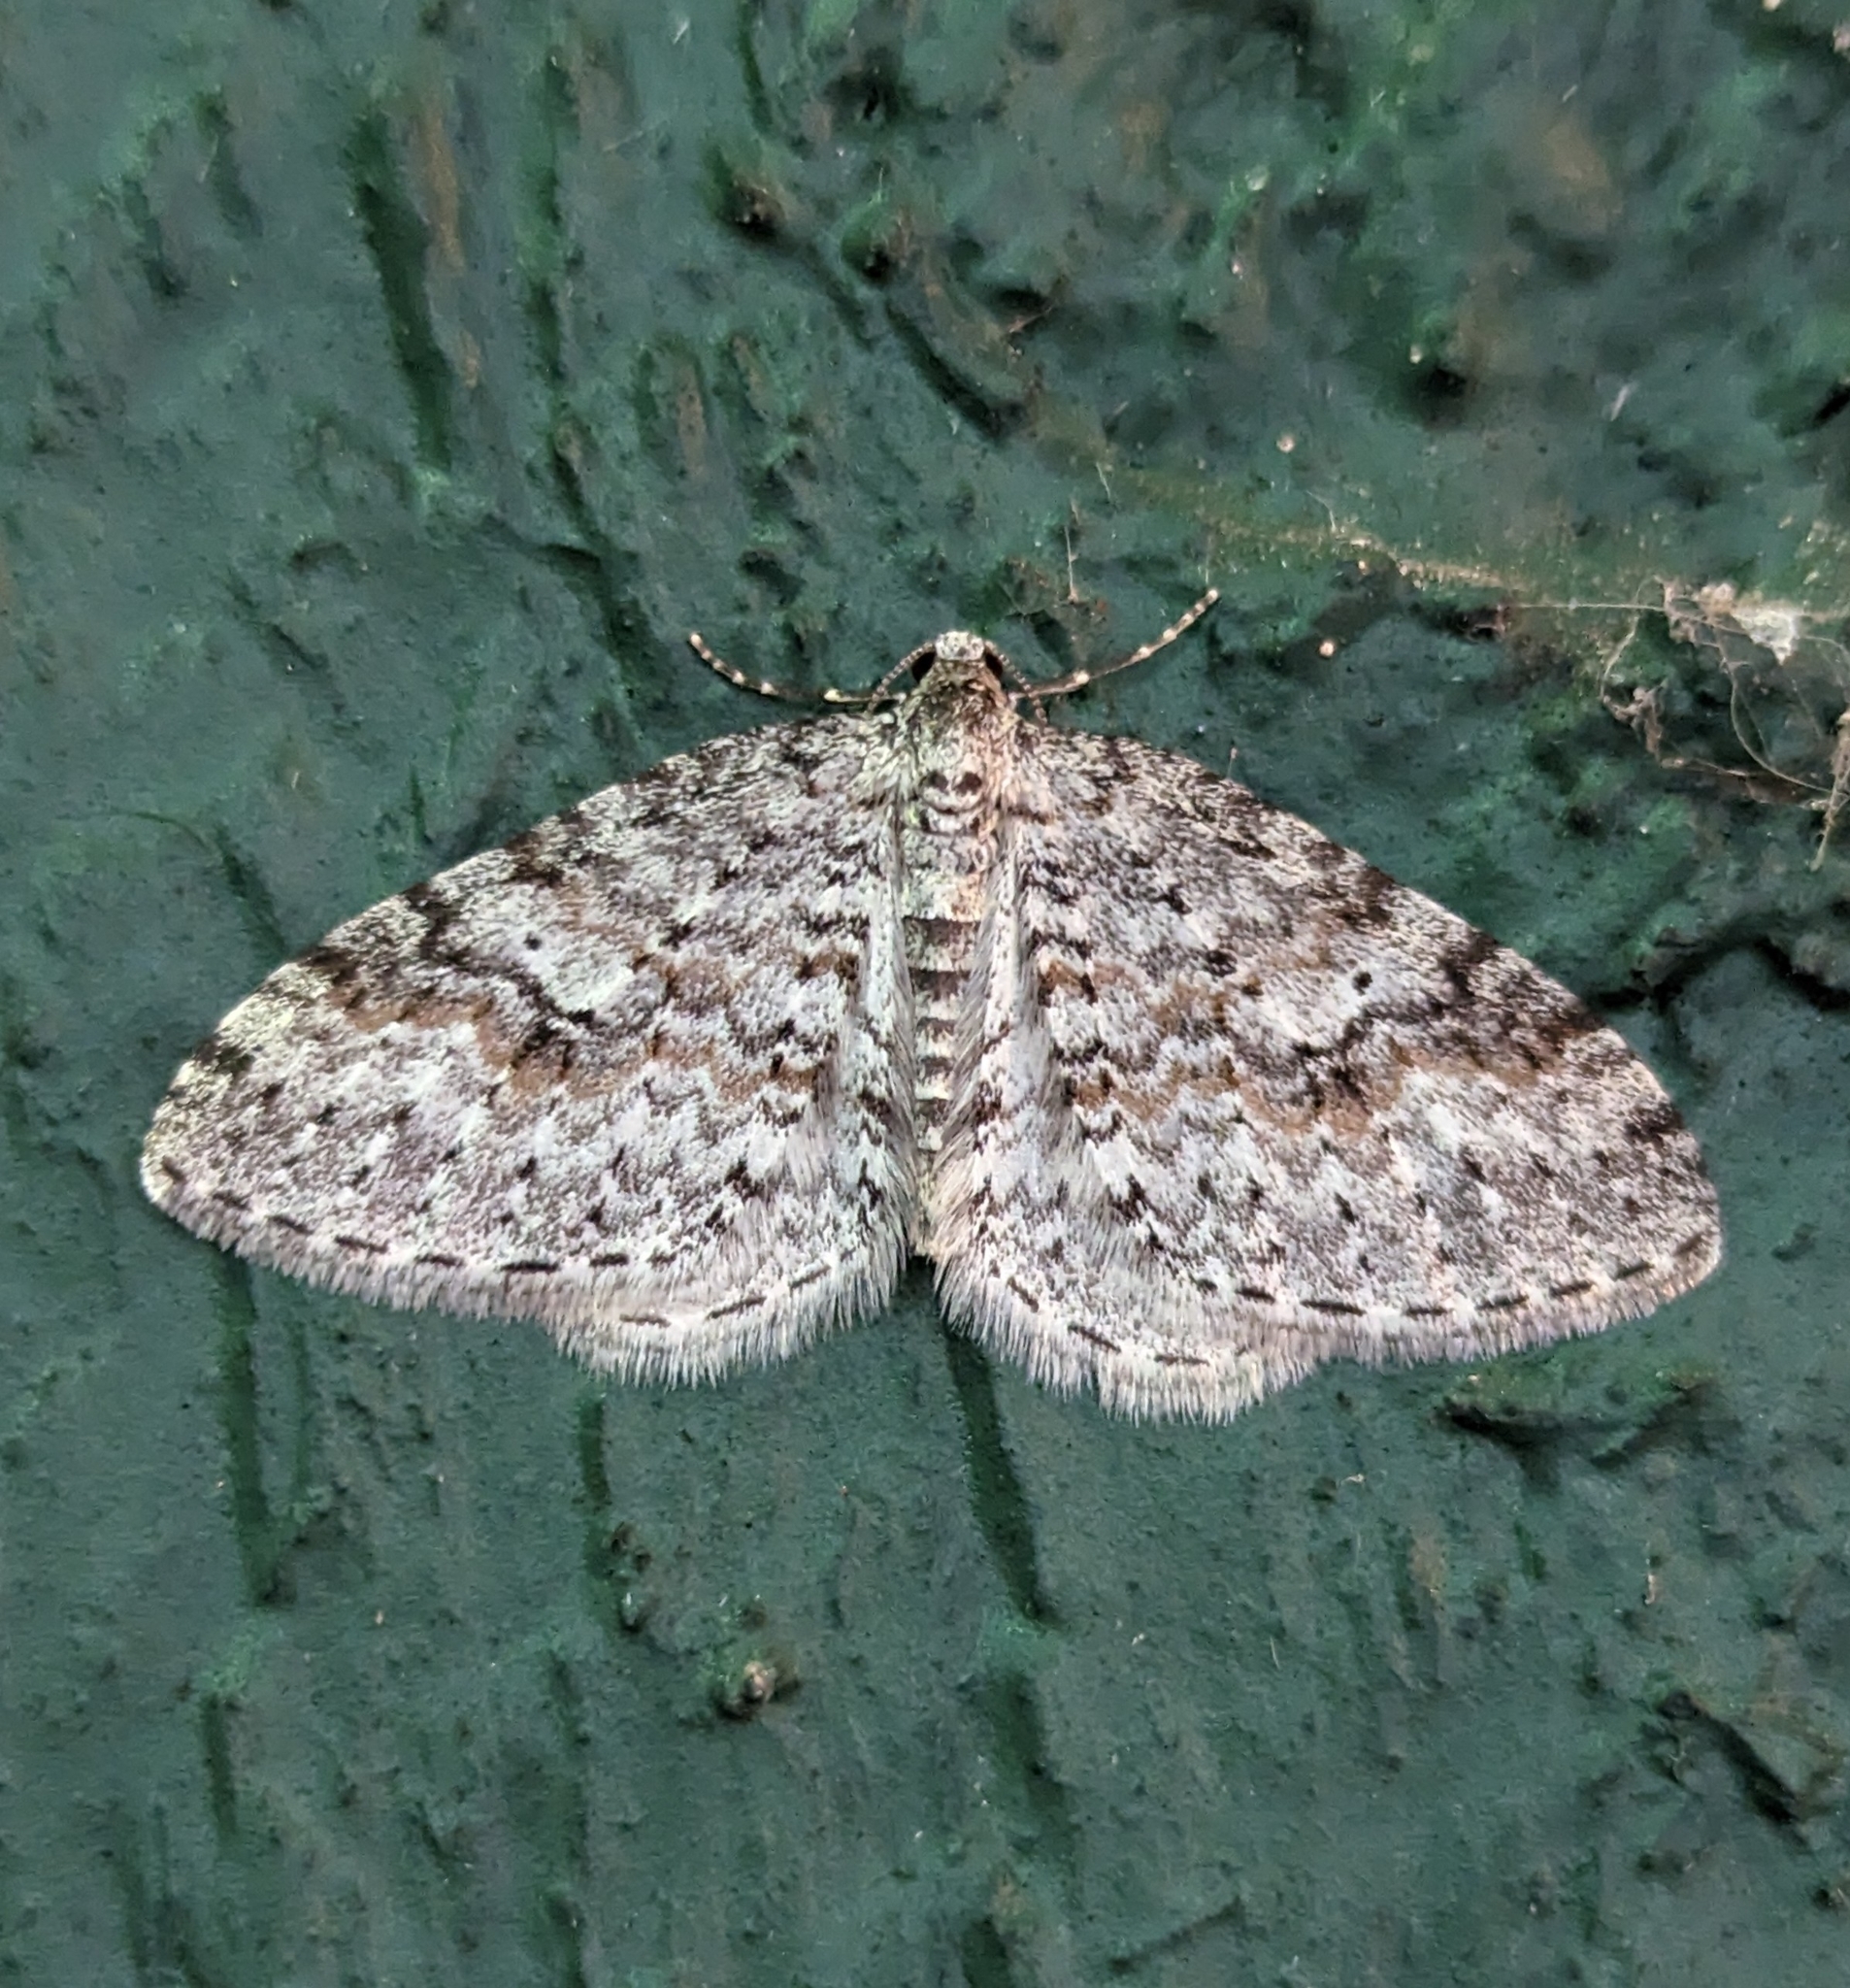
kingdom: Animalia
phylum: Arthropoda
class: Insecta
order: Lepidoptera
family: Geometridae
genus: Venusia
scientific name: Venusia pearsalli
